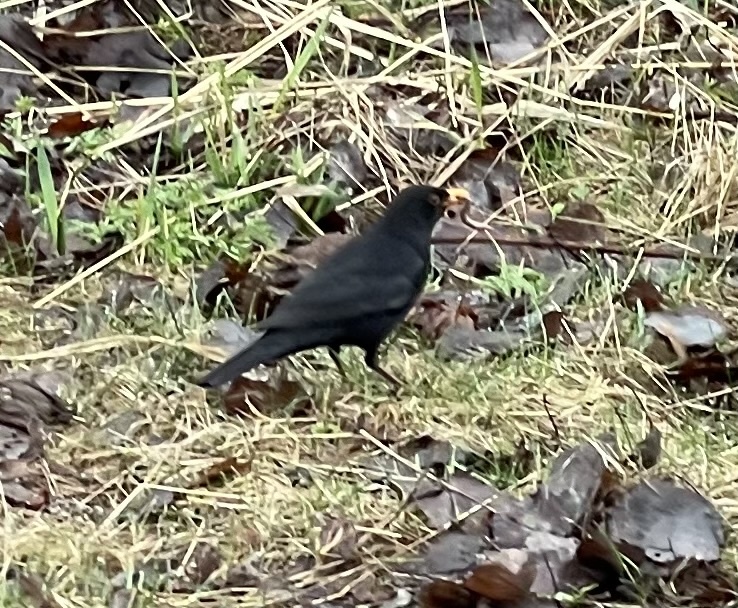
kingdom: Animalia
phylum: Chordata
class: Aves
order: Passeriformes
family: Turdidae
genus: Turdus
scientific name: Turdus merula
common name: Common blackbird
